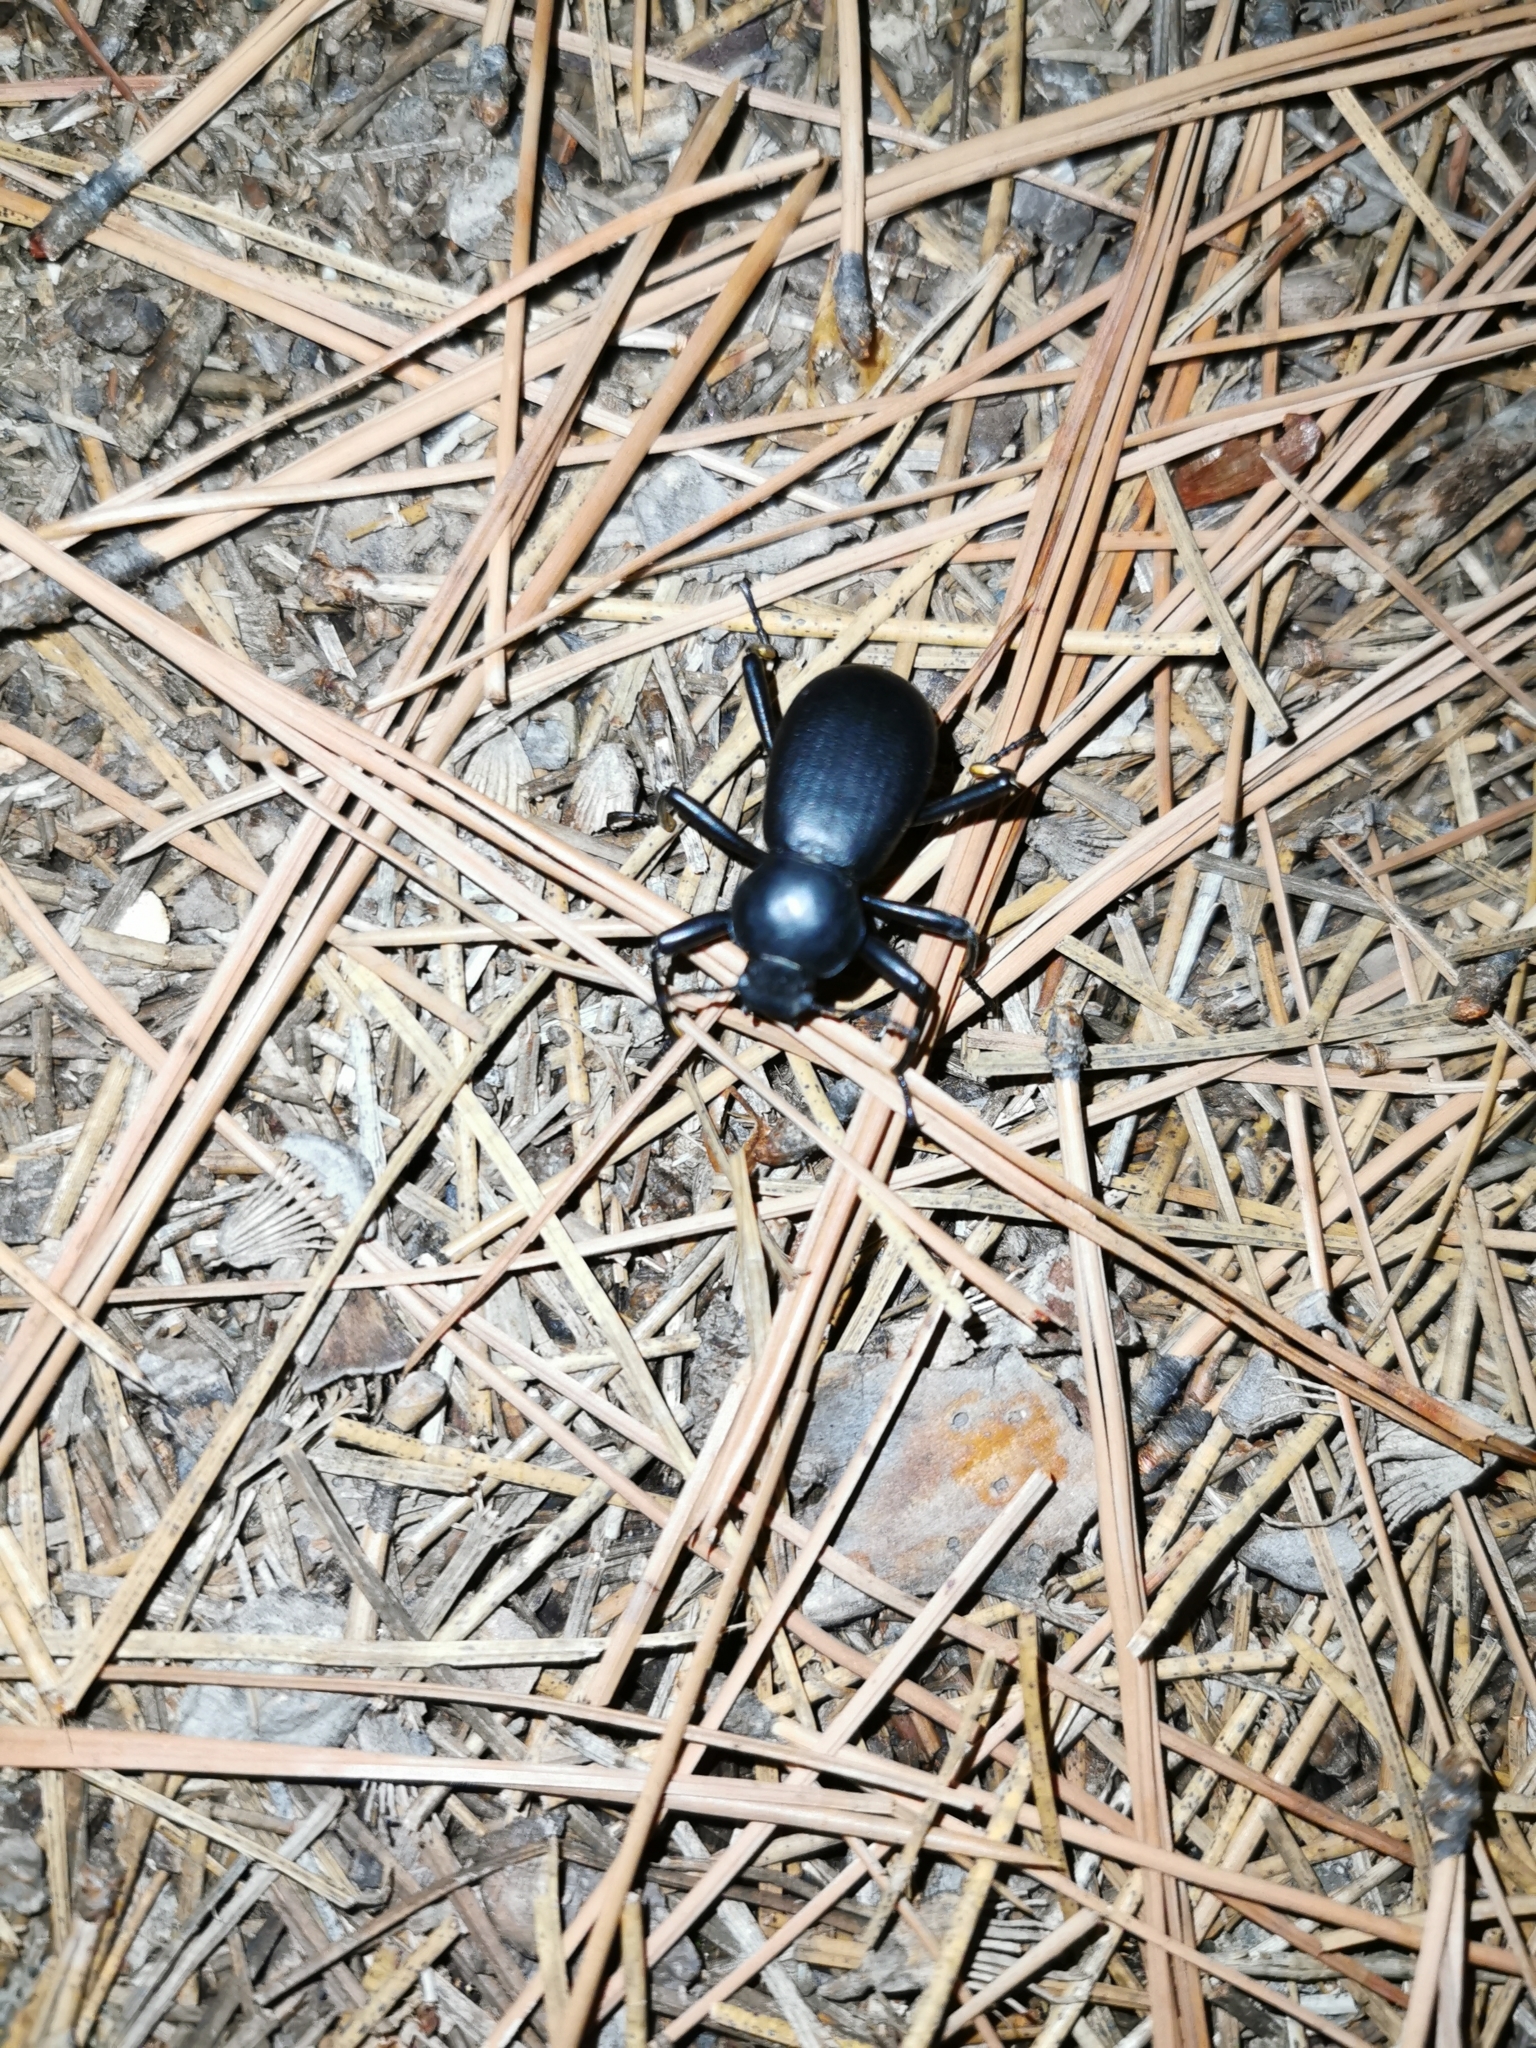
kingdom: Animalia
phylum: Arthropoda
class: Insecta
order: Coleoptera
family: Tenebrionidae
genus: Coelocnemis
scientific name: Coelocnemis dilaticollis
